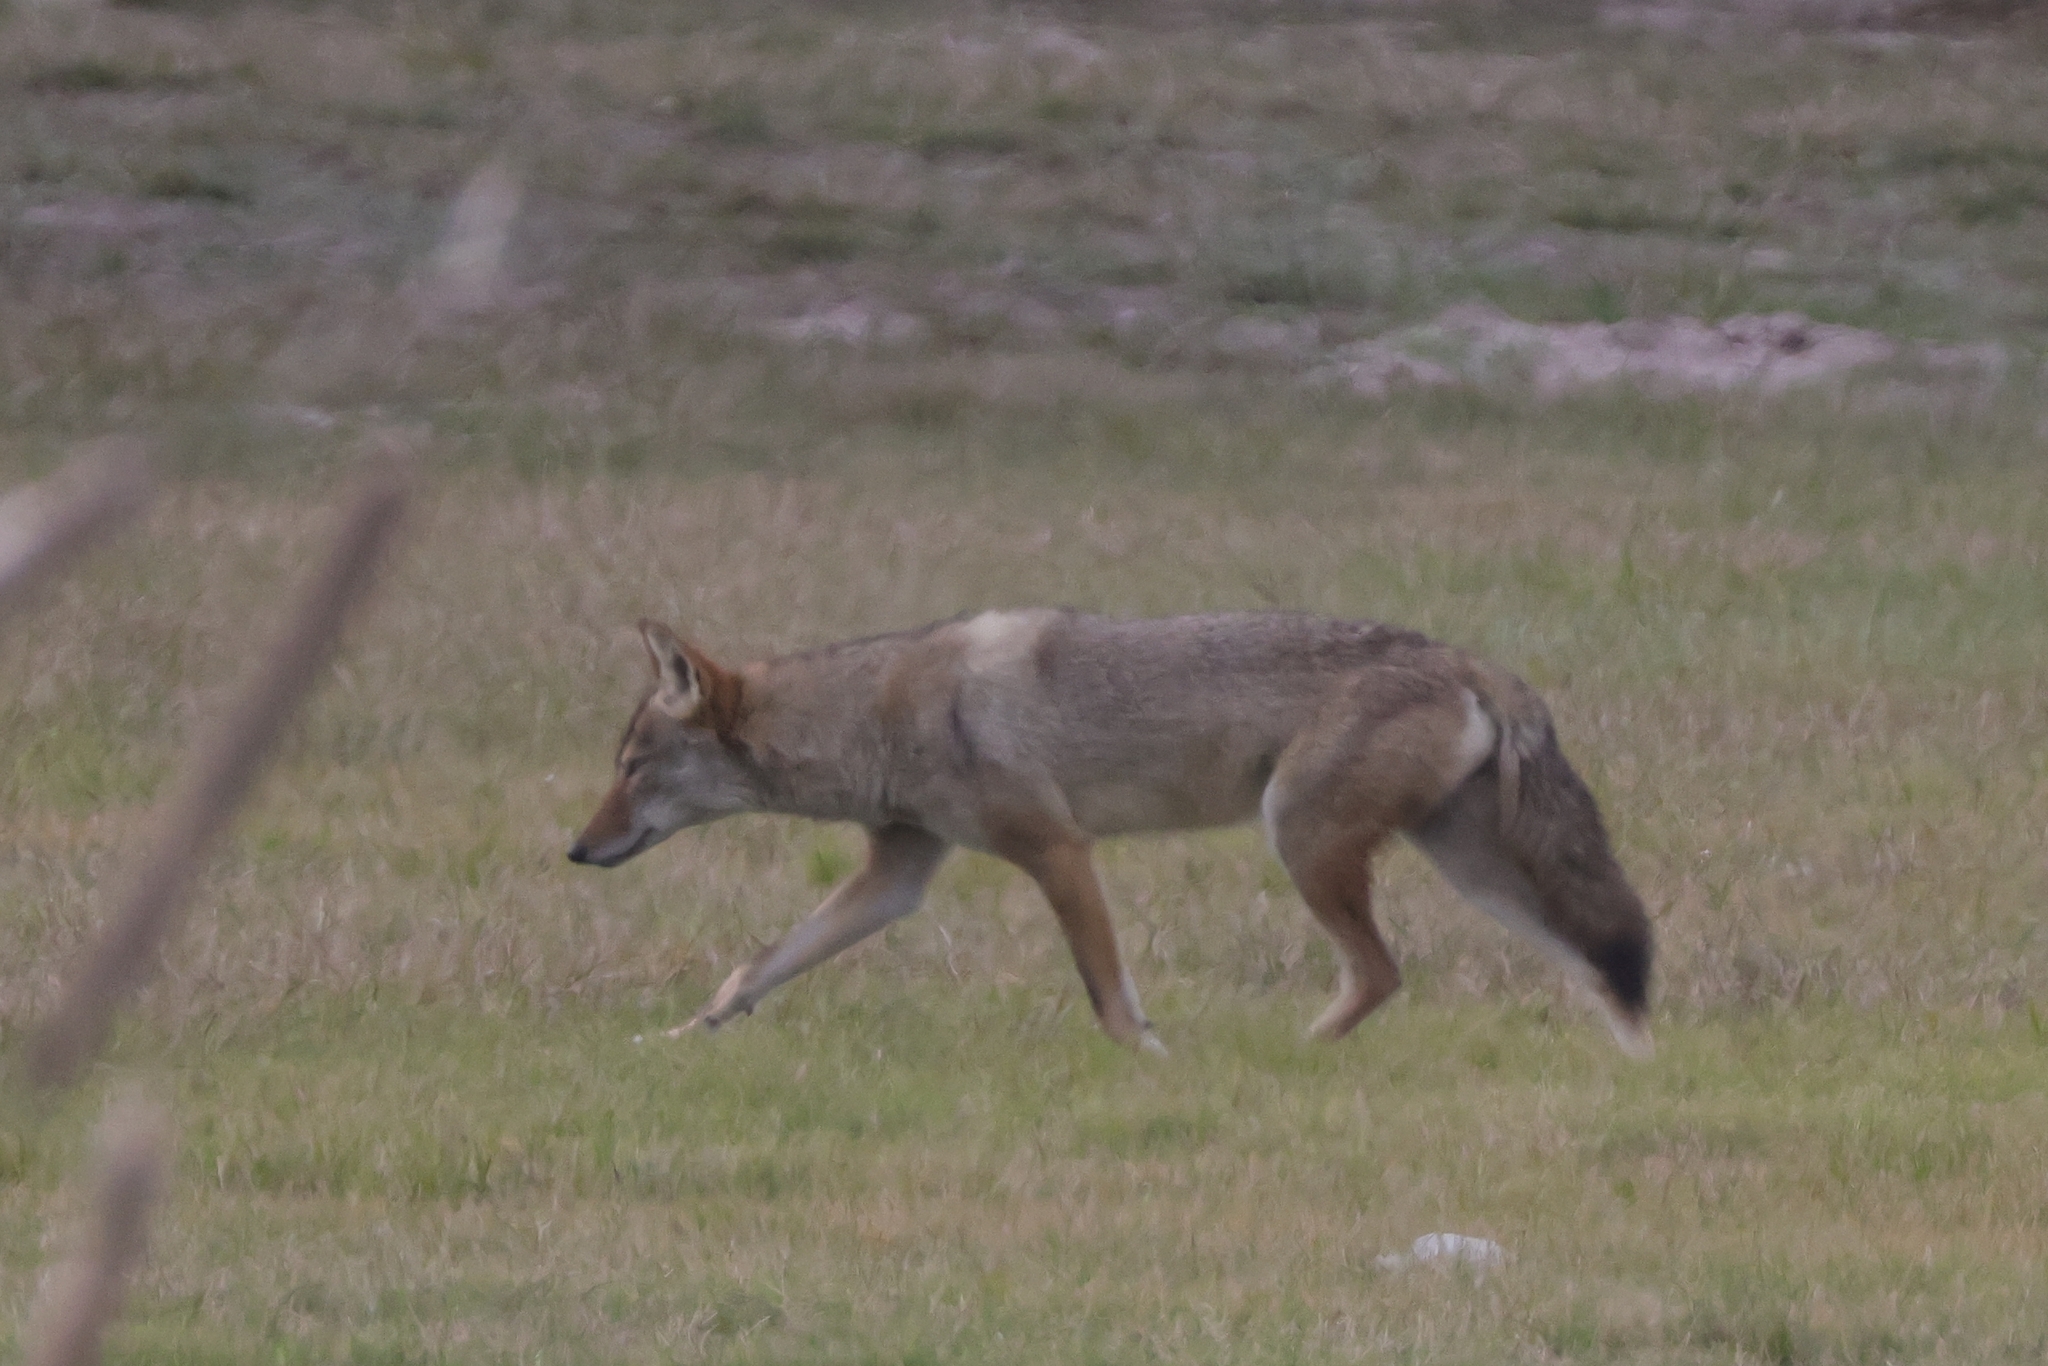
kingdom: Animalia
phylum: Chordata
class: Mammalia
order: Carnivora
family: Canidae
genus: Canis
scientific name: Canis latrans
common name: Coyote
